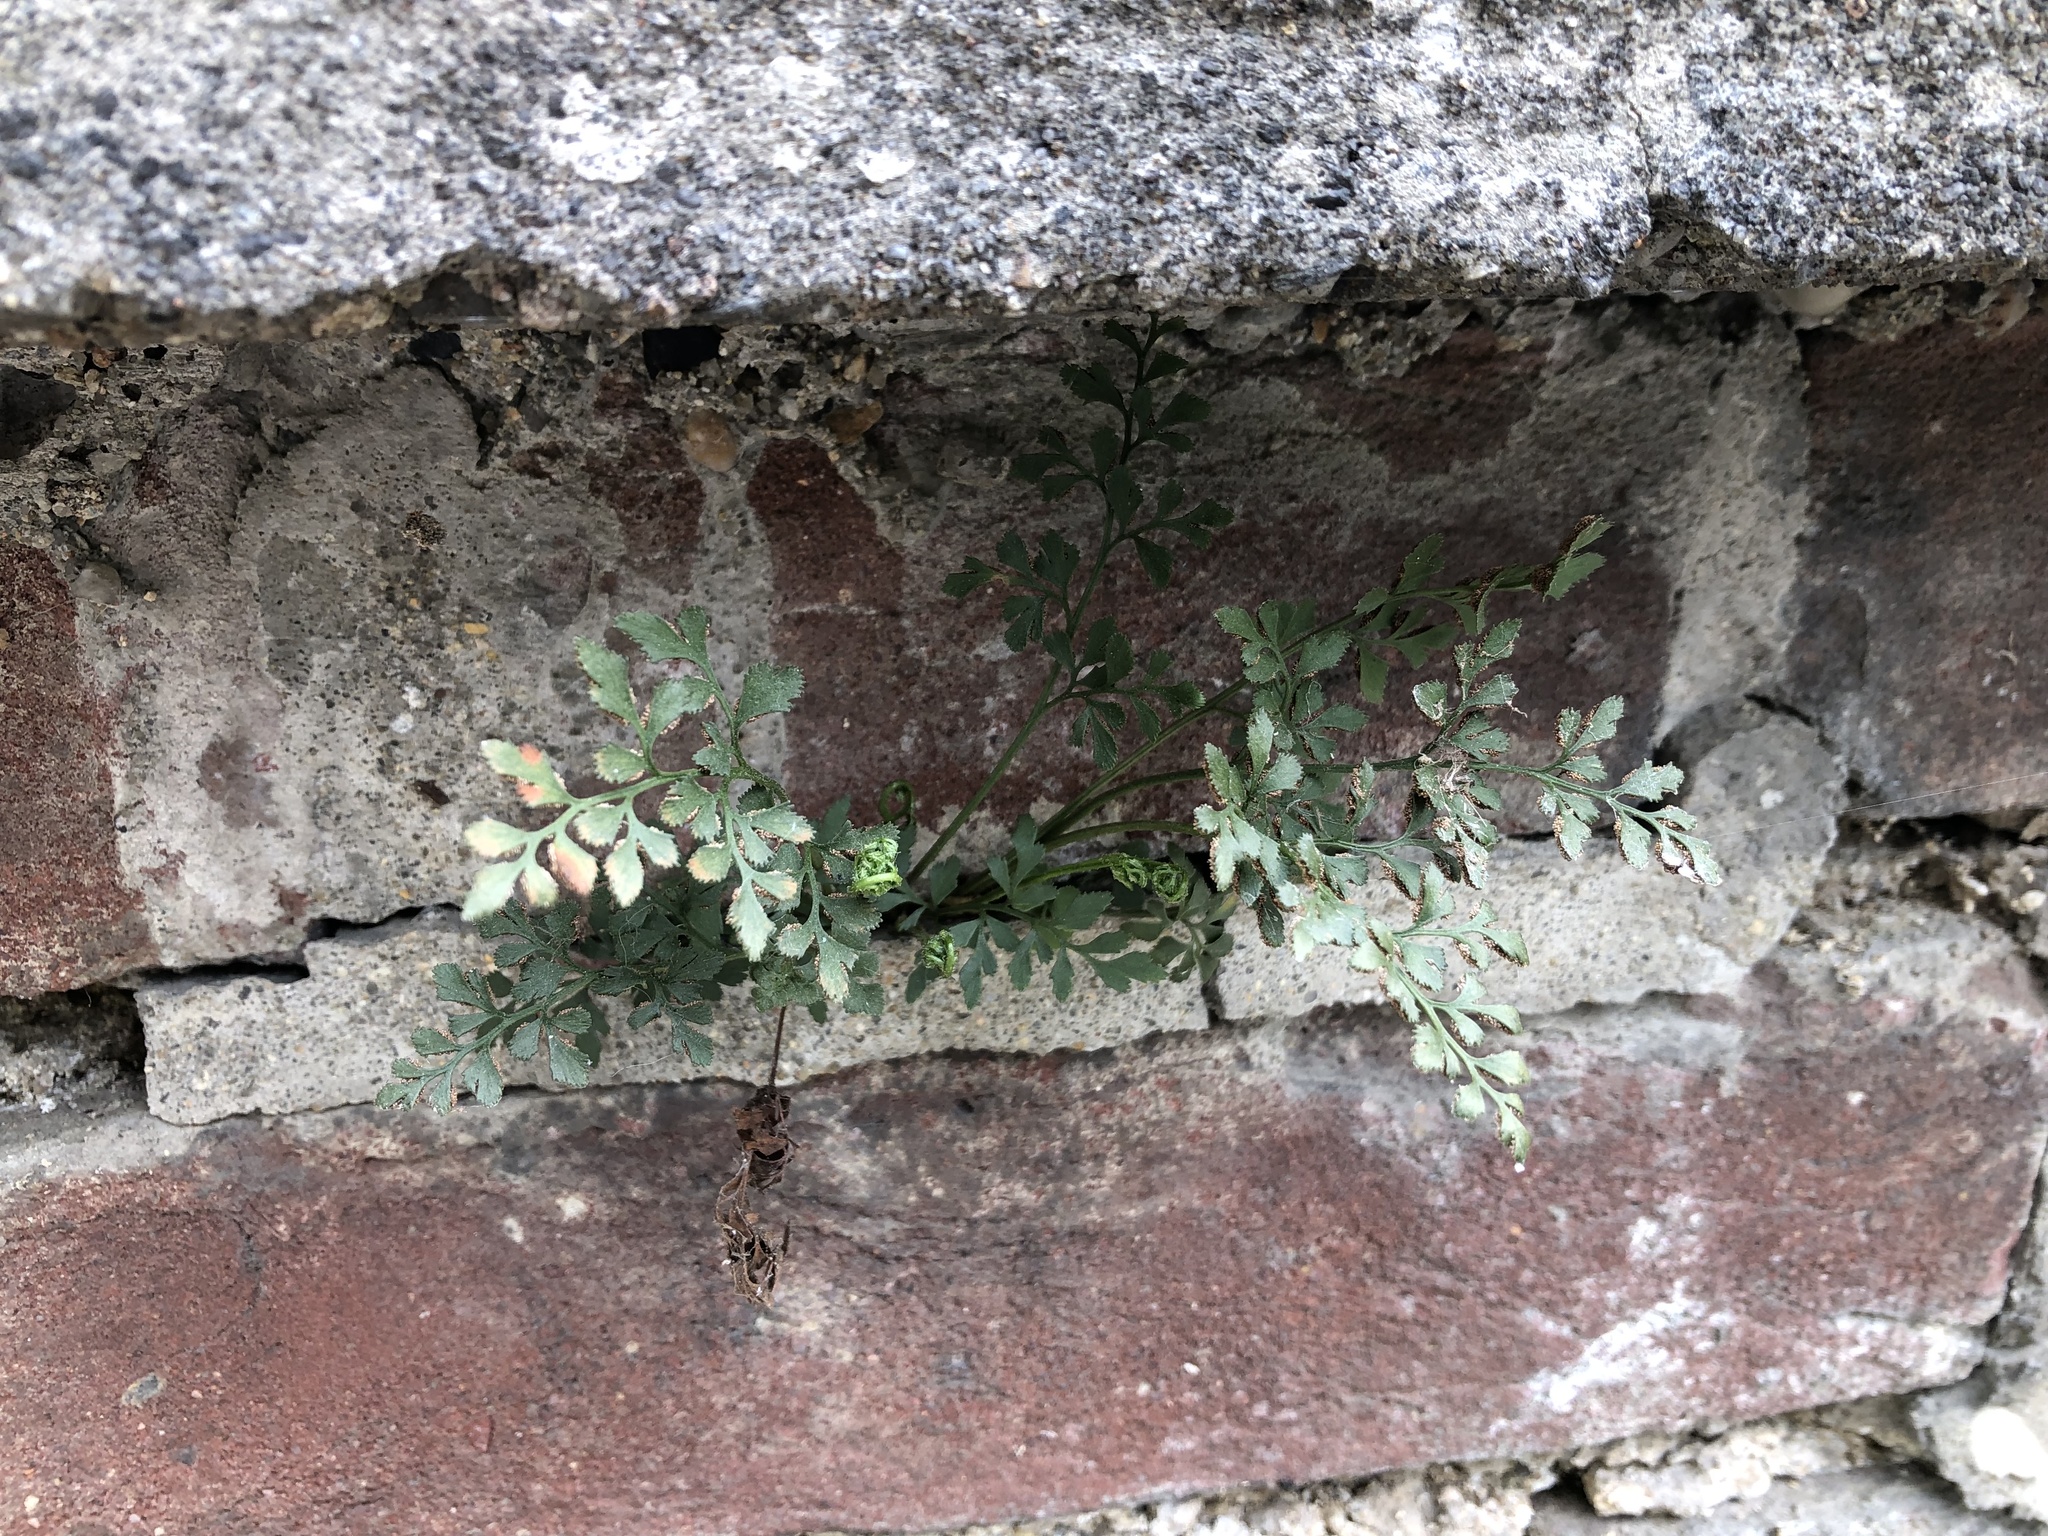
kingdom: Plantae
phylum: Tracheophyta
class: Polypodiopsida
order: Polypodiales
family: Aspleniaceae
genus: Asplenium
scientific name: Asplenium ruta-muraria
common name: Wall-rue
